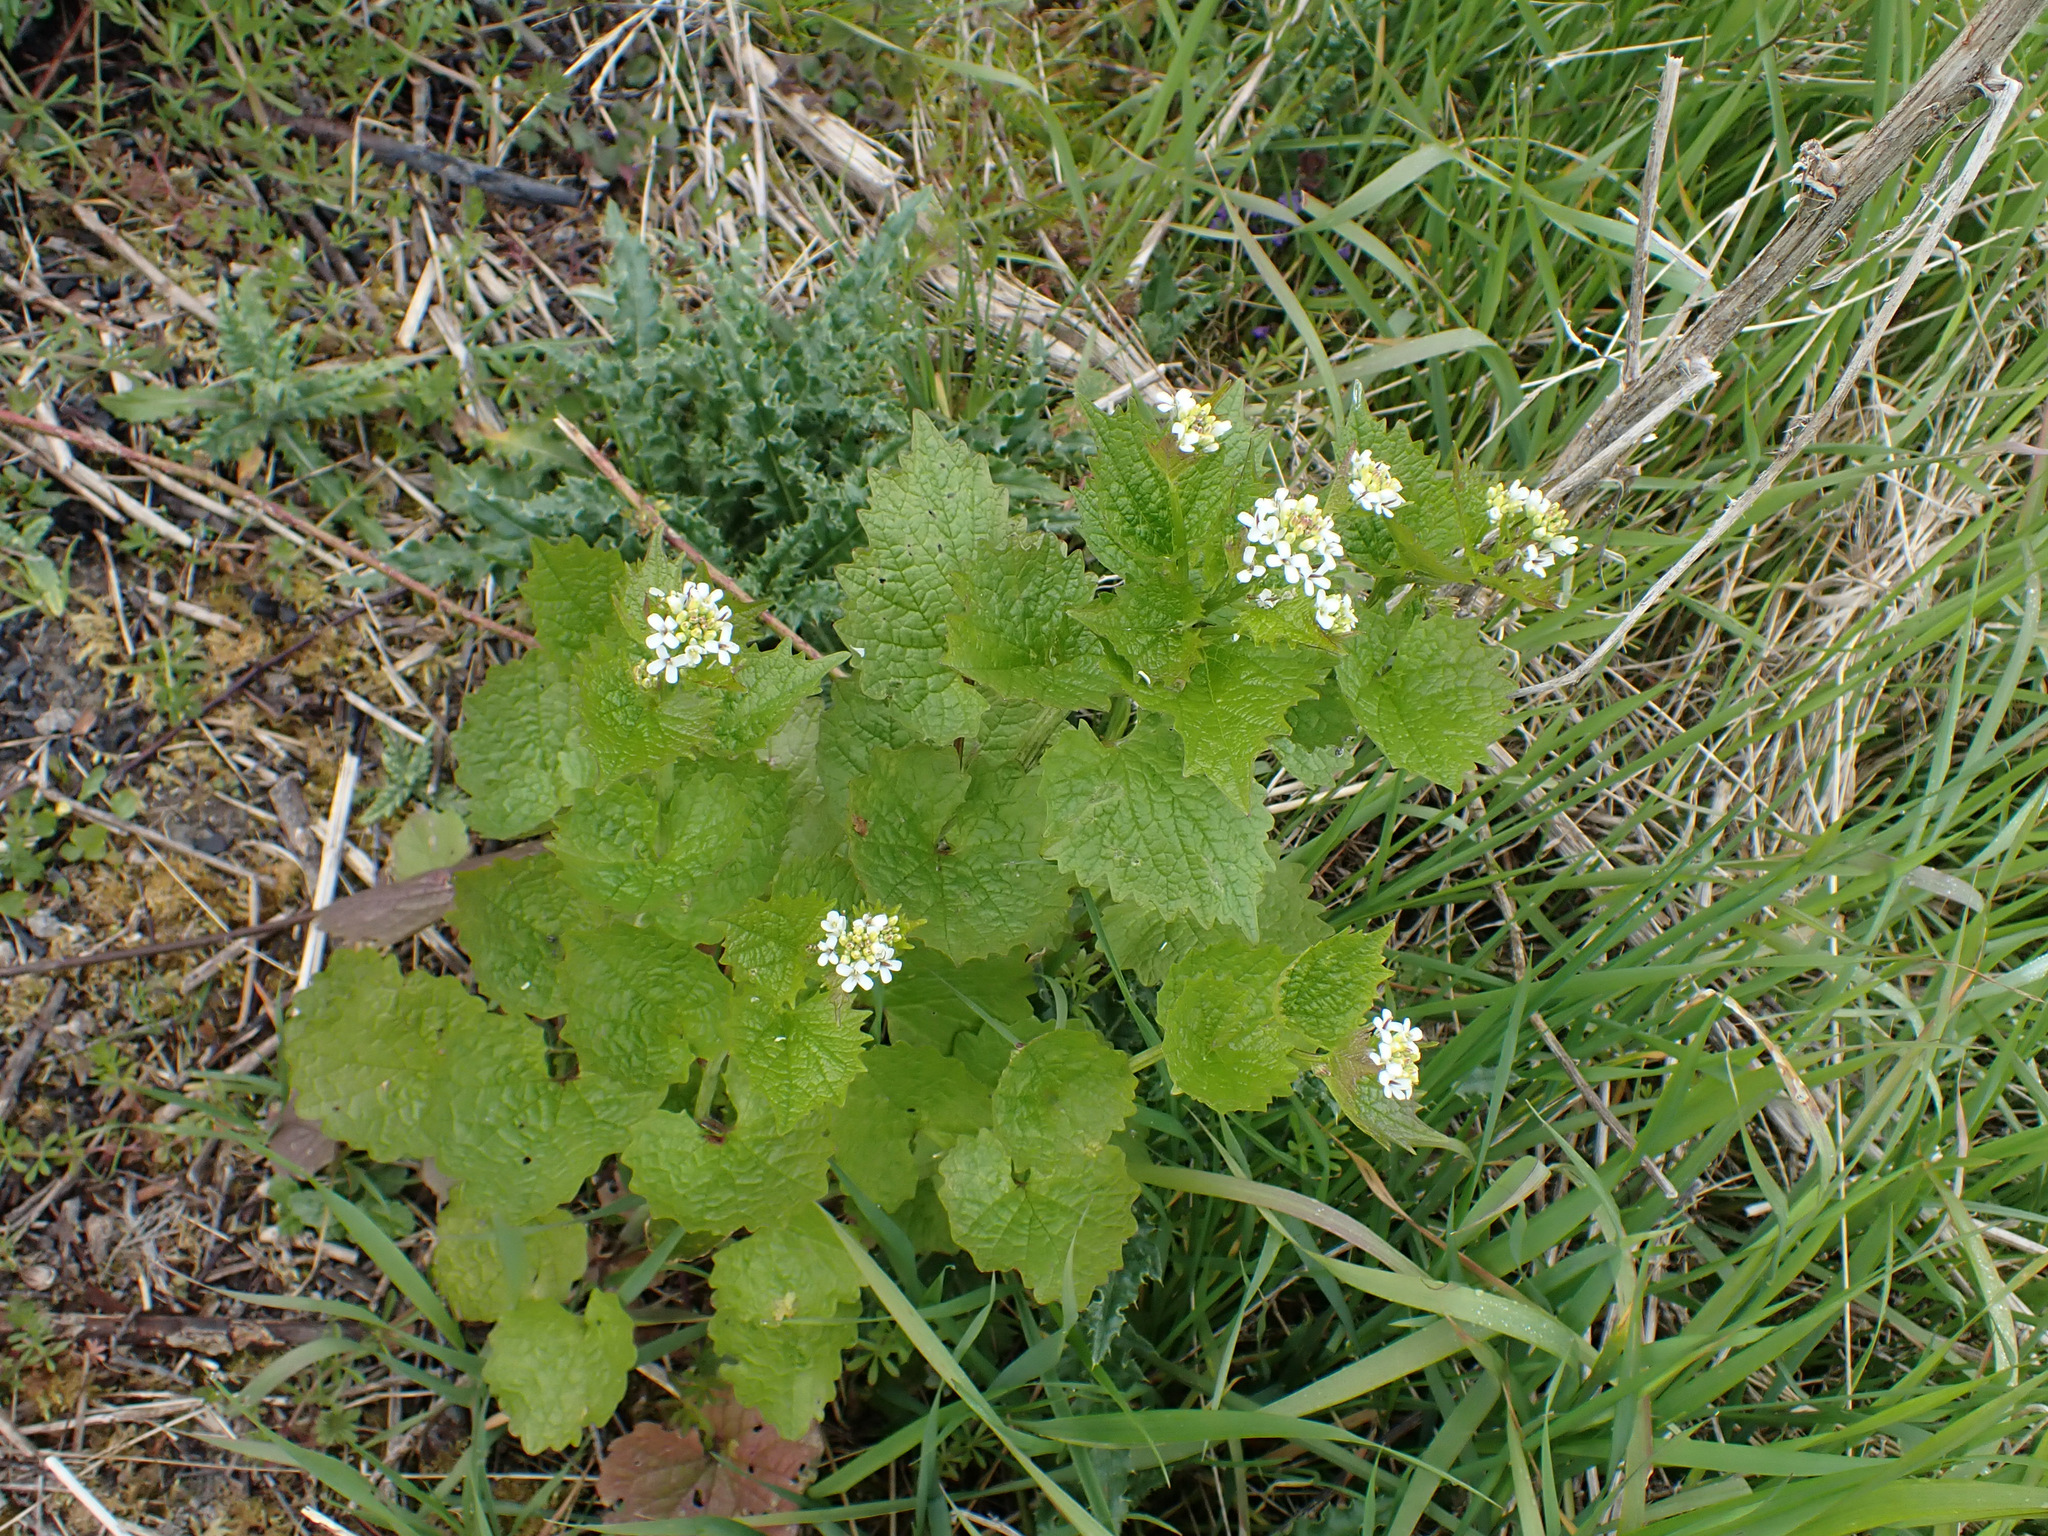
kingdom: Plantae
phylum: Tracheophyta
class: Magnoliopsida
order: Brassicales
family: Brassicaceae
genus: Alliaria
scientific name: Alliaria petiolata
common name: Garlic mustard
